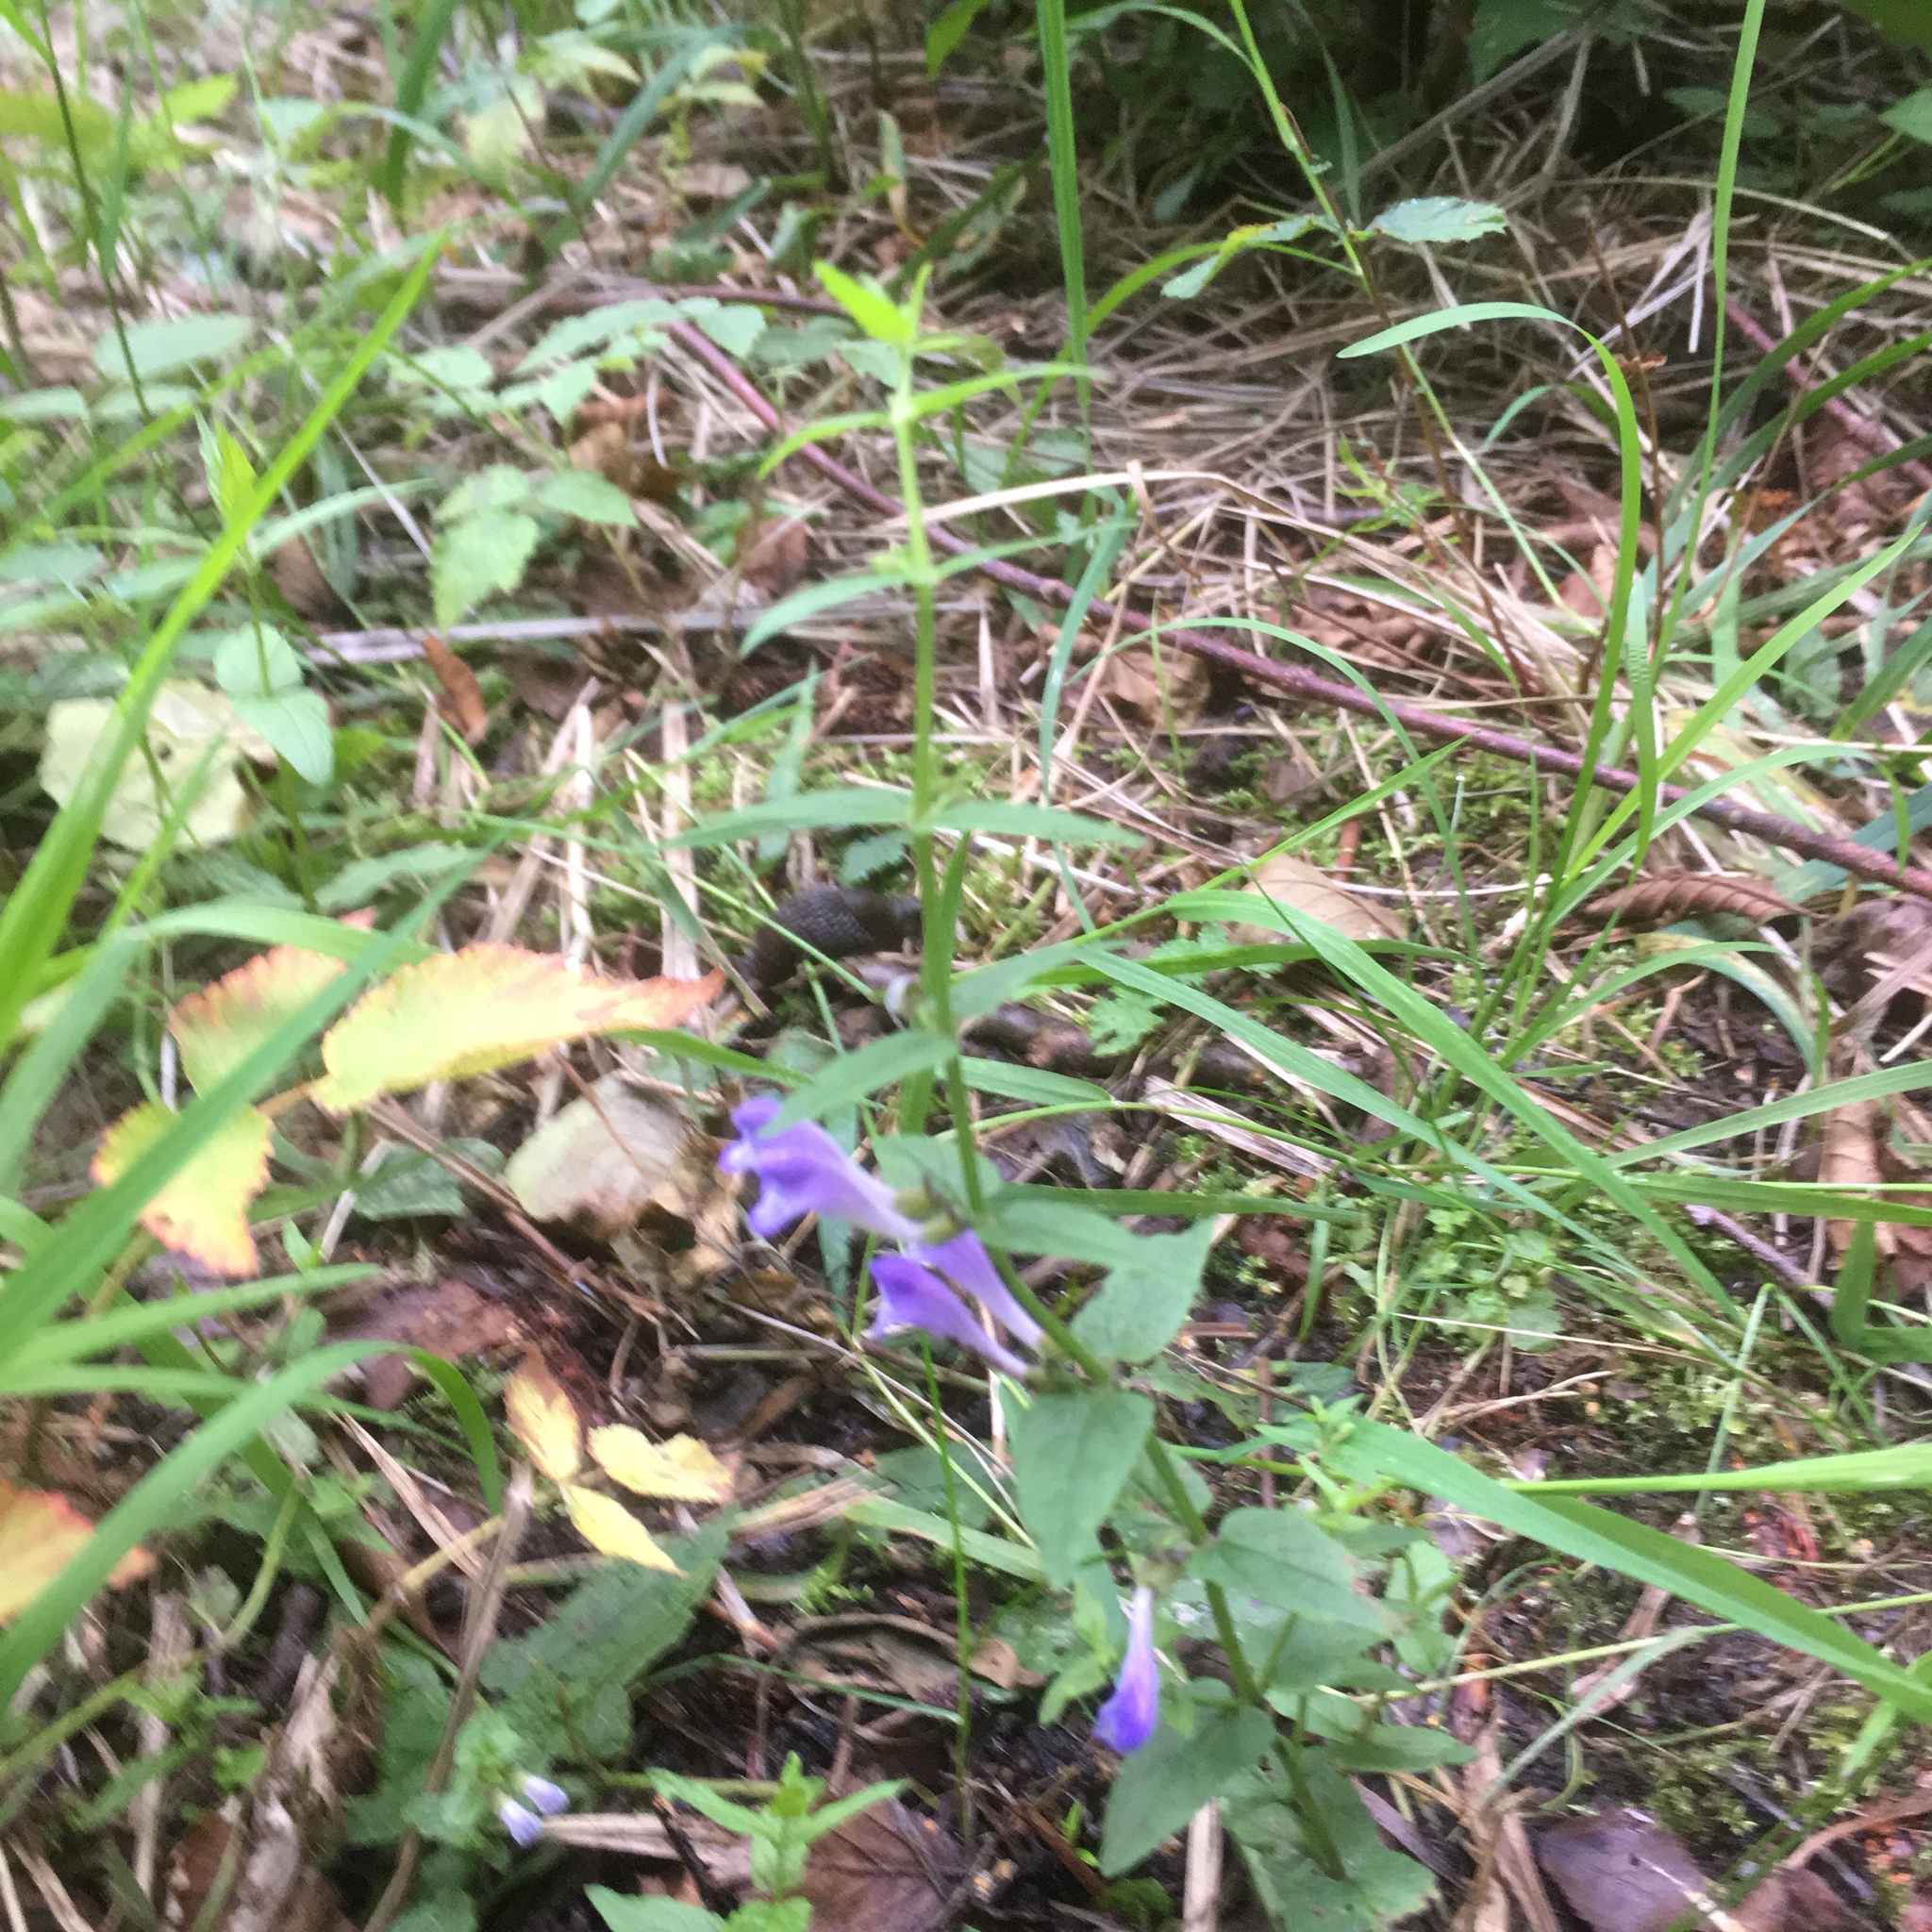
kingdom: Plantae
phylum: Tracheophyta
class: Magnoliopsida
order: Lamiales
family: Lamiaceae
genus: Scutellaria
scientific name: Scutellaria galericulata
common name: Skullcap
